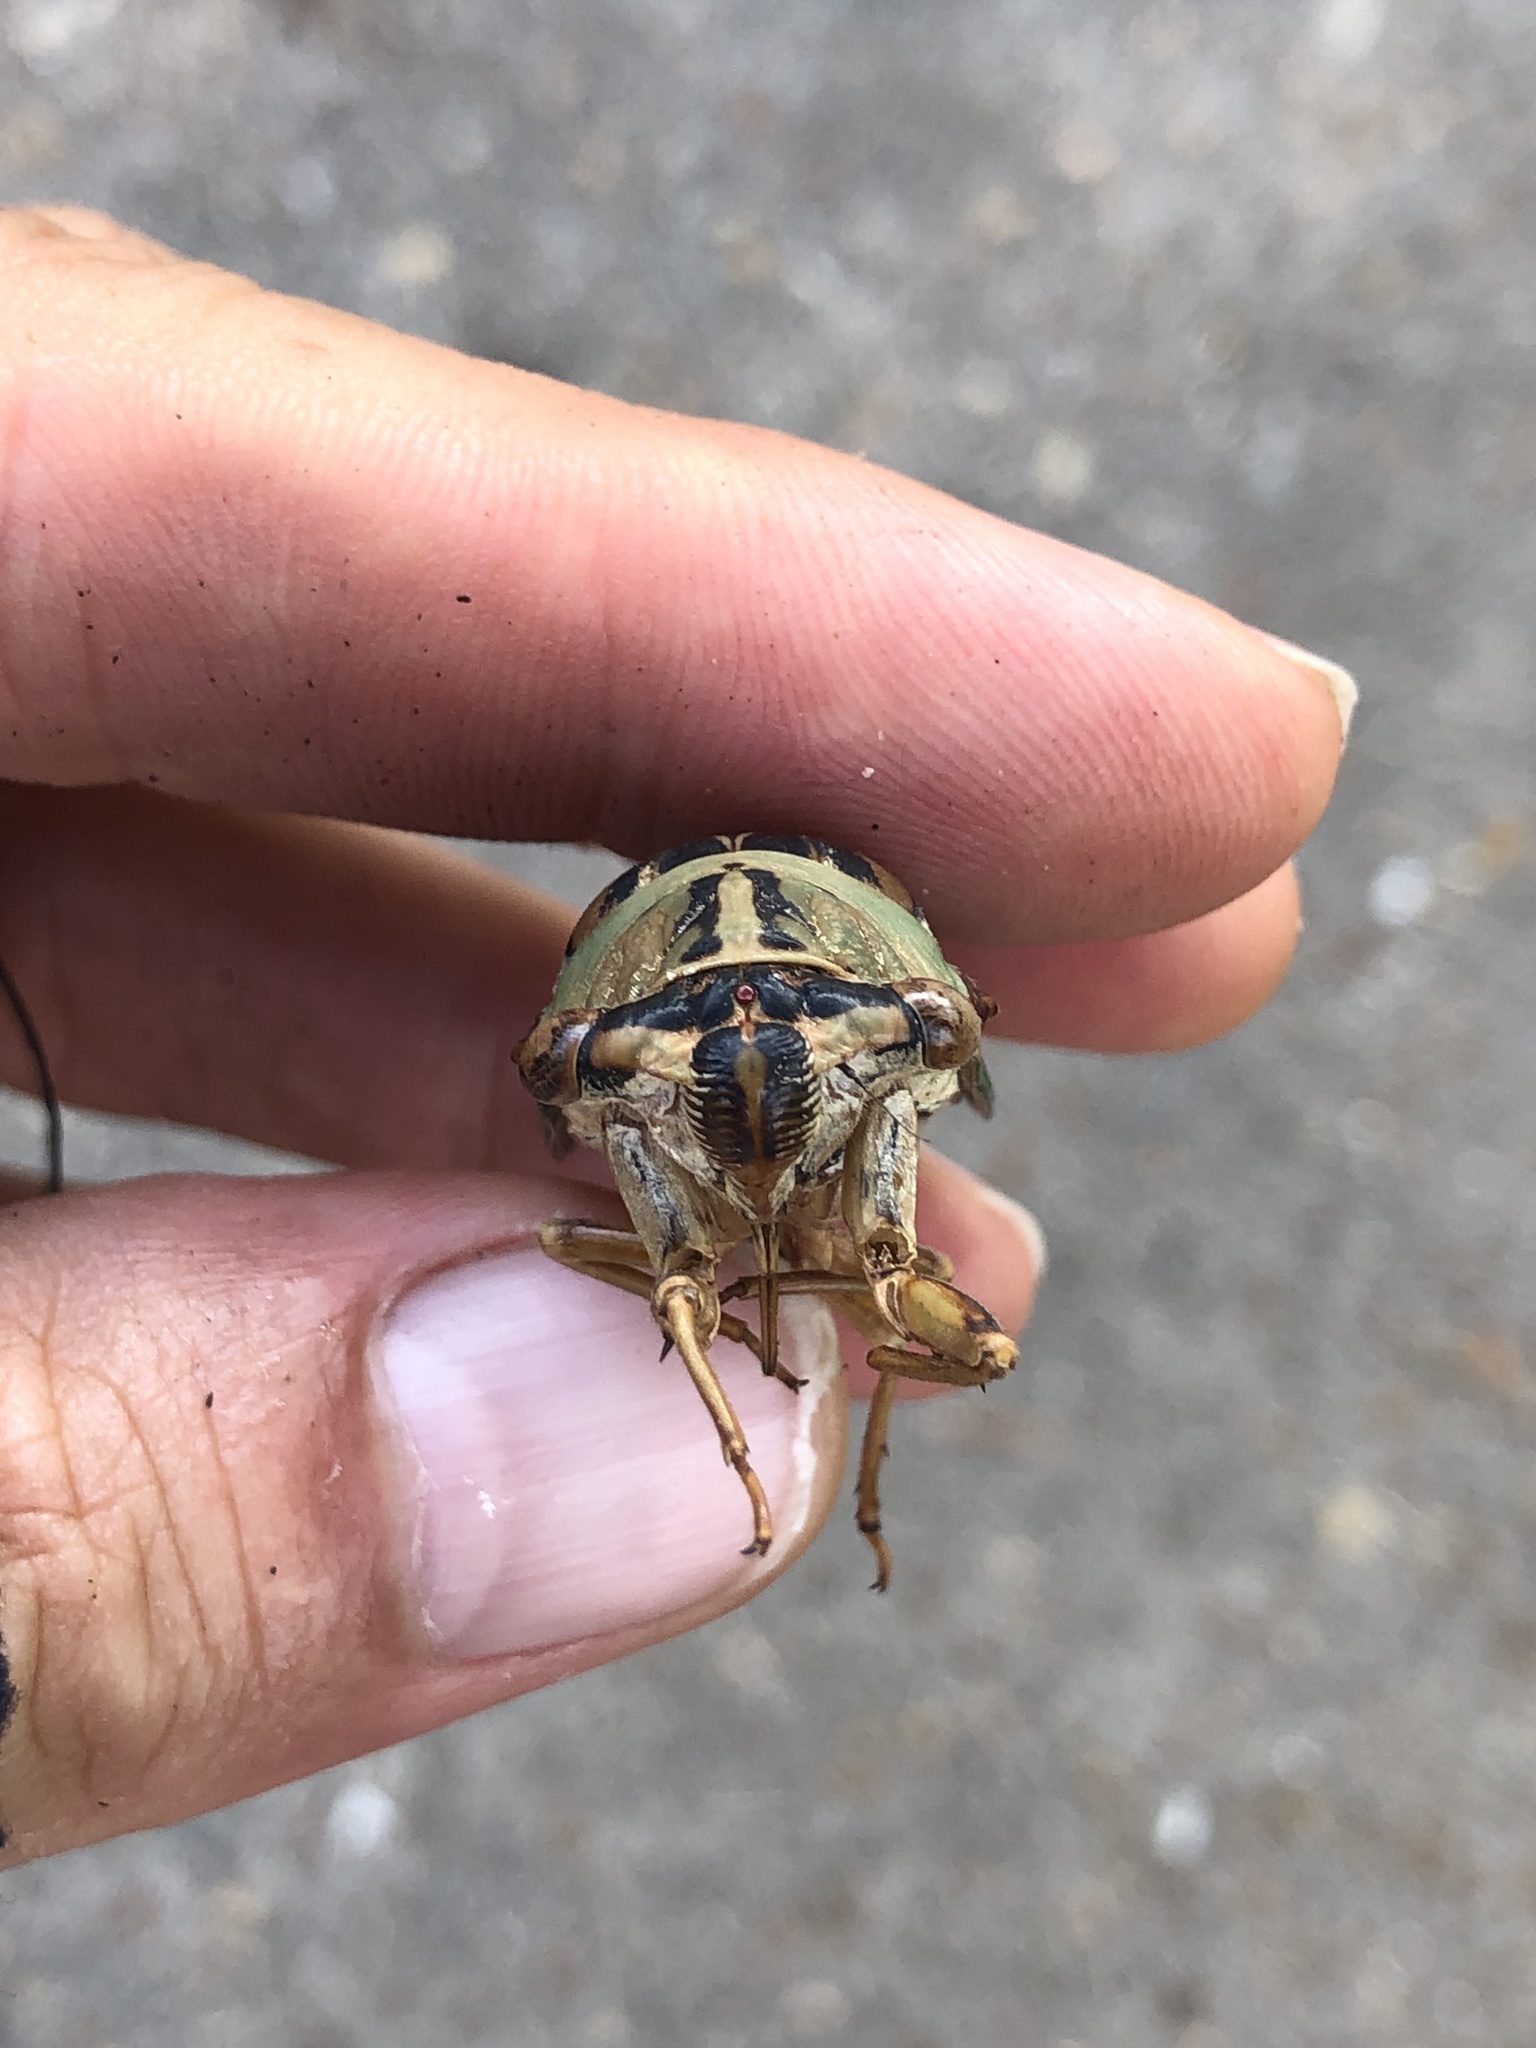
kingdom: Animalia
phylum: Arthropoda
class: Insecta
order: Hemiptera
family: Cicadidae
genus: Megatibicen
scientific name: Megatibicen resh
